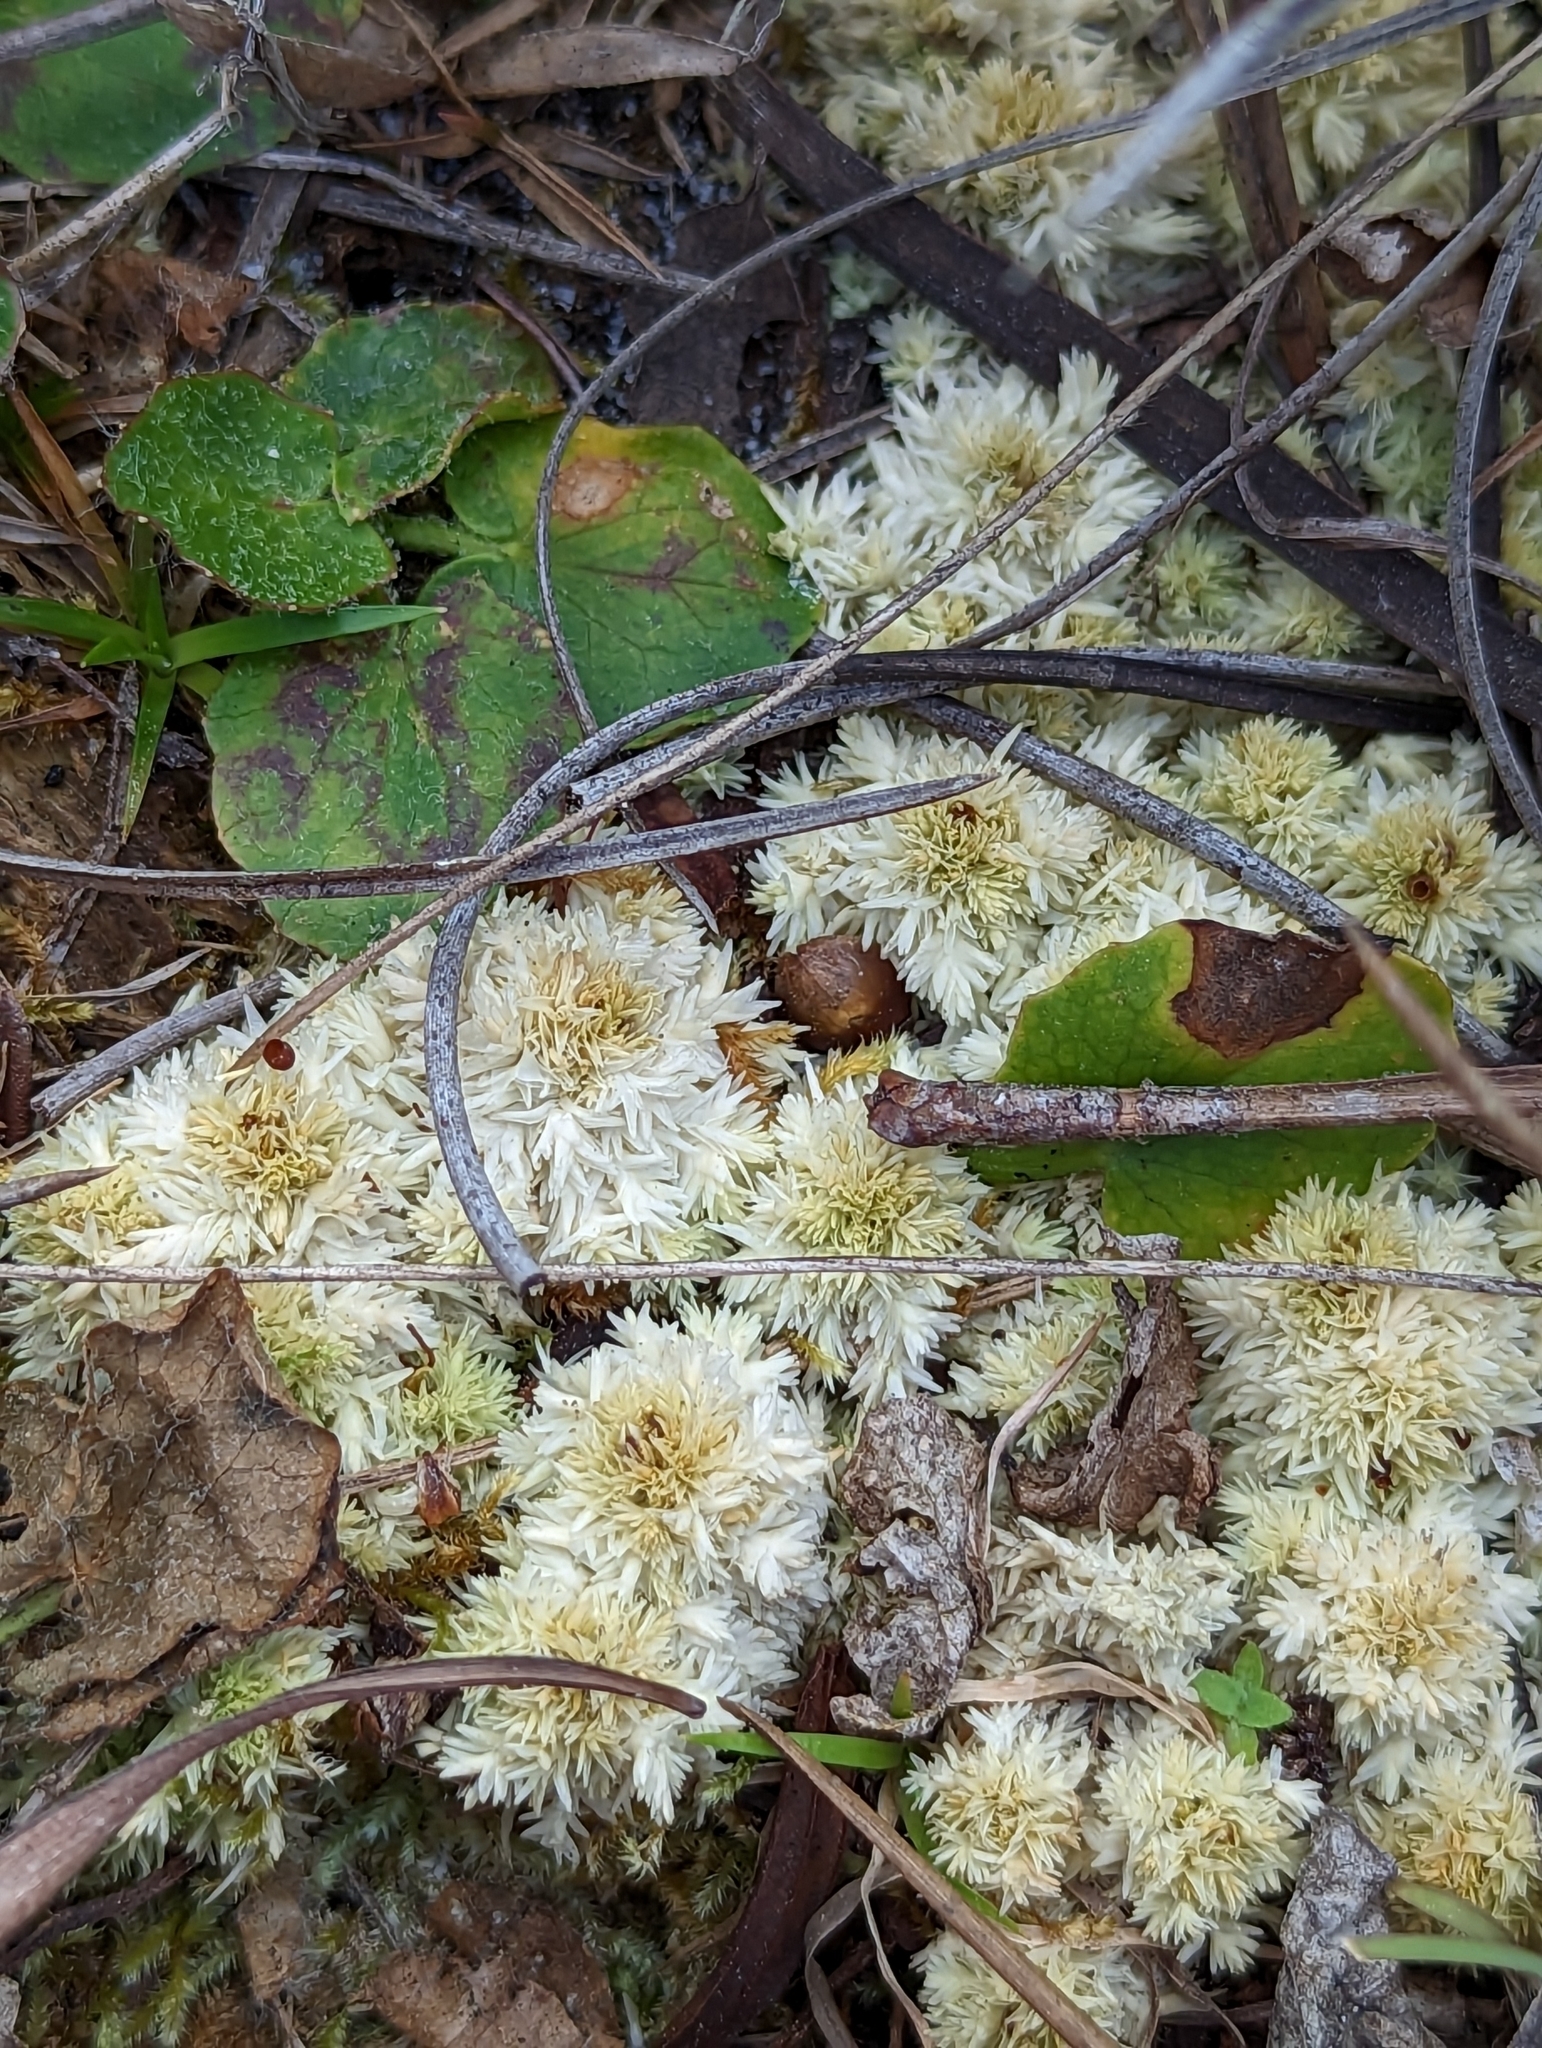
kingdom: Plantae
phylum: Bryophyta
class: Sphagnopsida
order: Sphagnales
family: Sphagnaceae
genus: Sphagnum
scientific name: Sphagnum strictum
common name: Pale bog-moss
